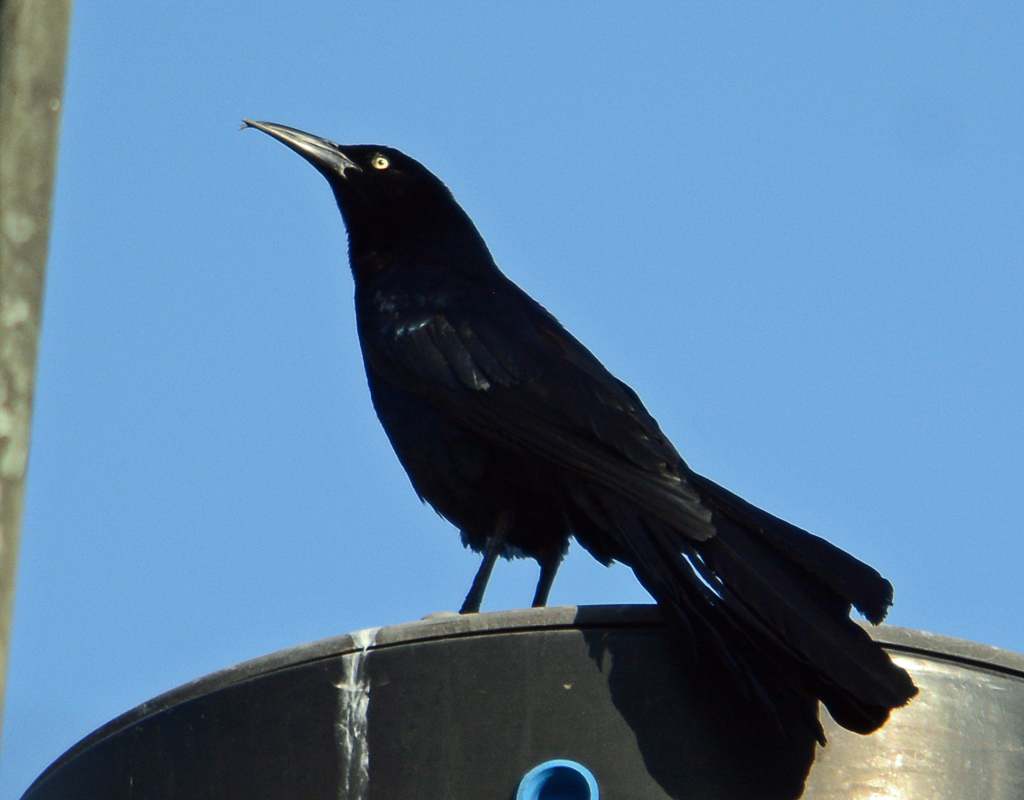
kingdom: Animalia
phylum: Chordata
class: Aves
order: Passeriformes
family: Icteridae
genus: Quiscalus
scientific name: Quiscalus mexicanus
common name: Great-tailed grackle
